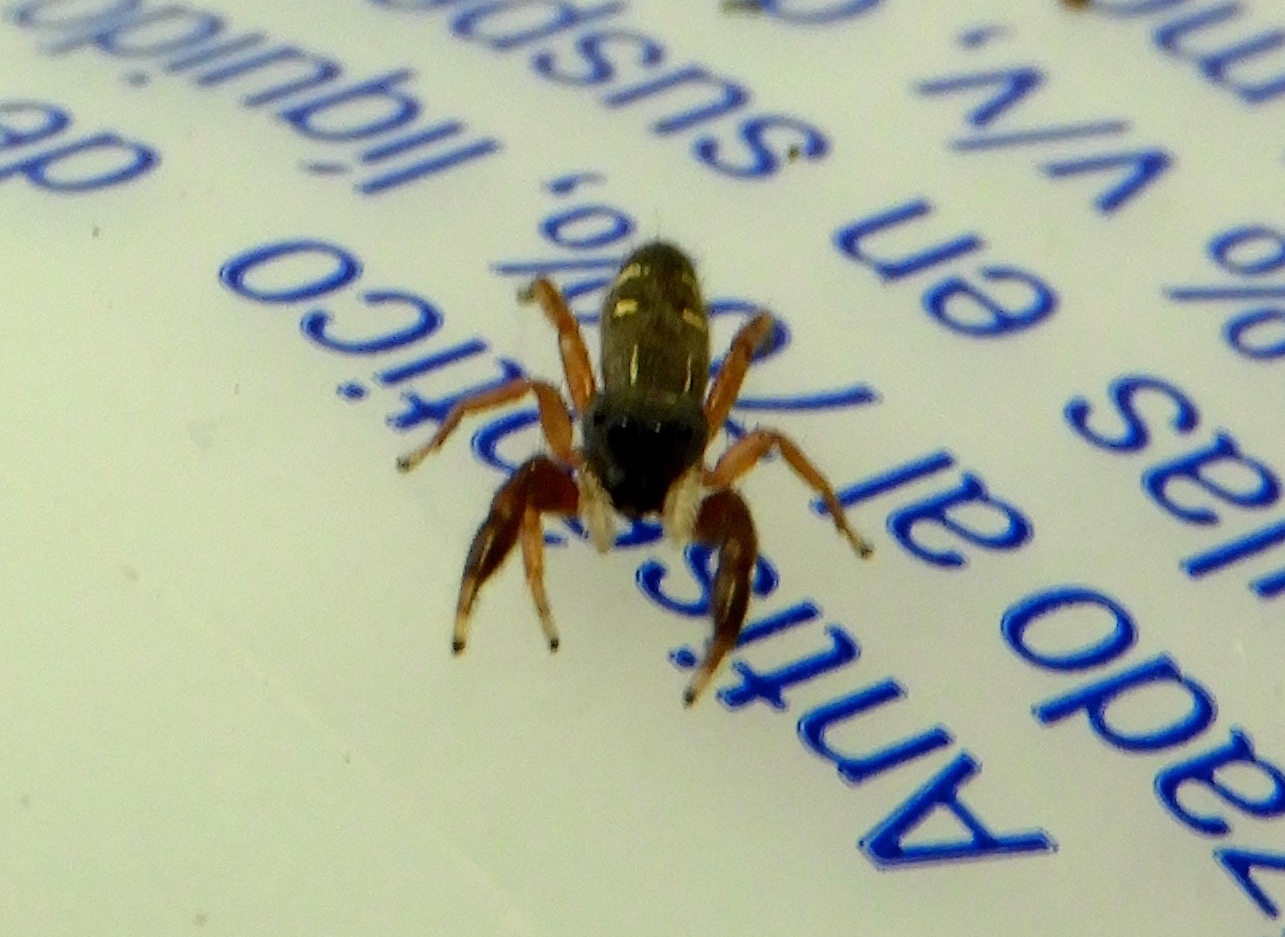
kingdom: Animalia
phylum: Arthropoda
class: Arachnida
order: Araneae
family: Salticidae
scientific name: Salticidae
